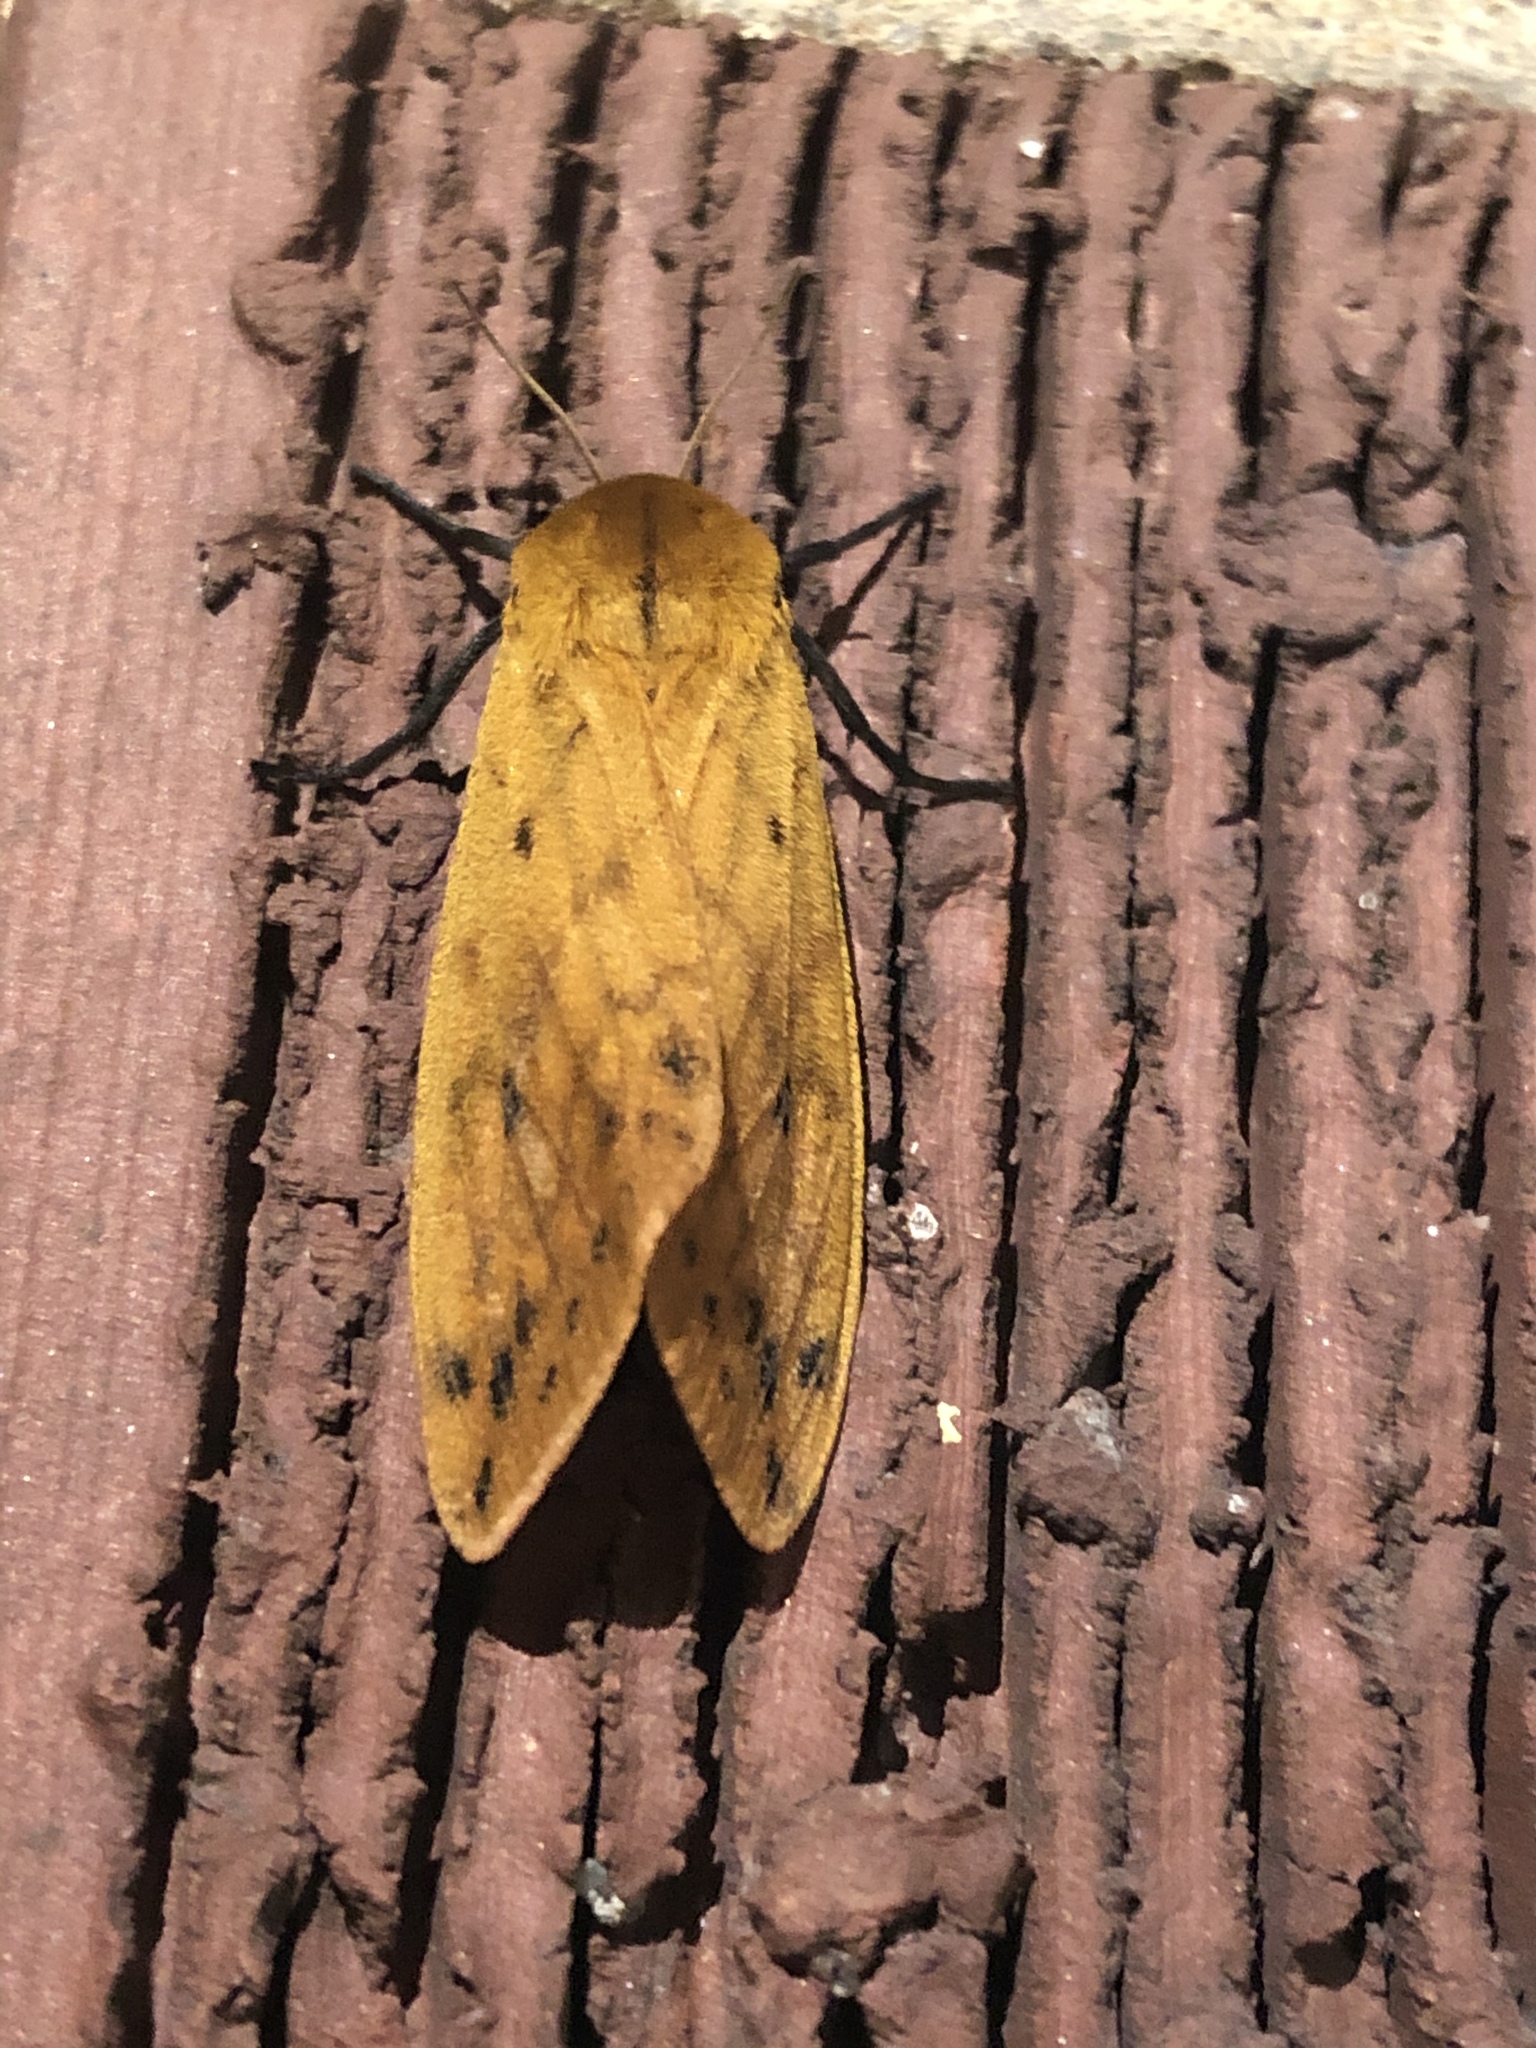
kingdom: Animalia
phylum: Arthropoda
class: Insecta
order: Lepidoptera
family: Erebidae
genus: Pyrrharctia
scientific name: Pyrrharctia isabella
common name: Isabella tiger moth
